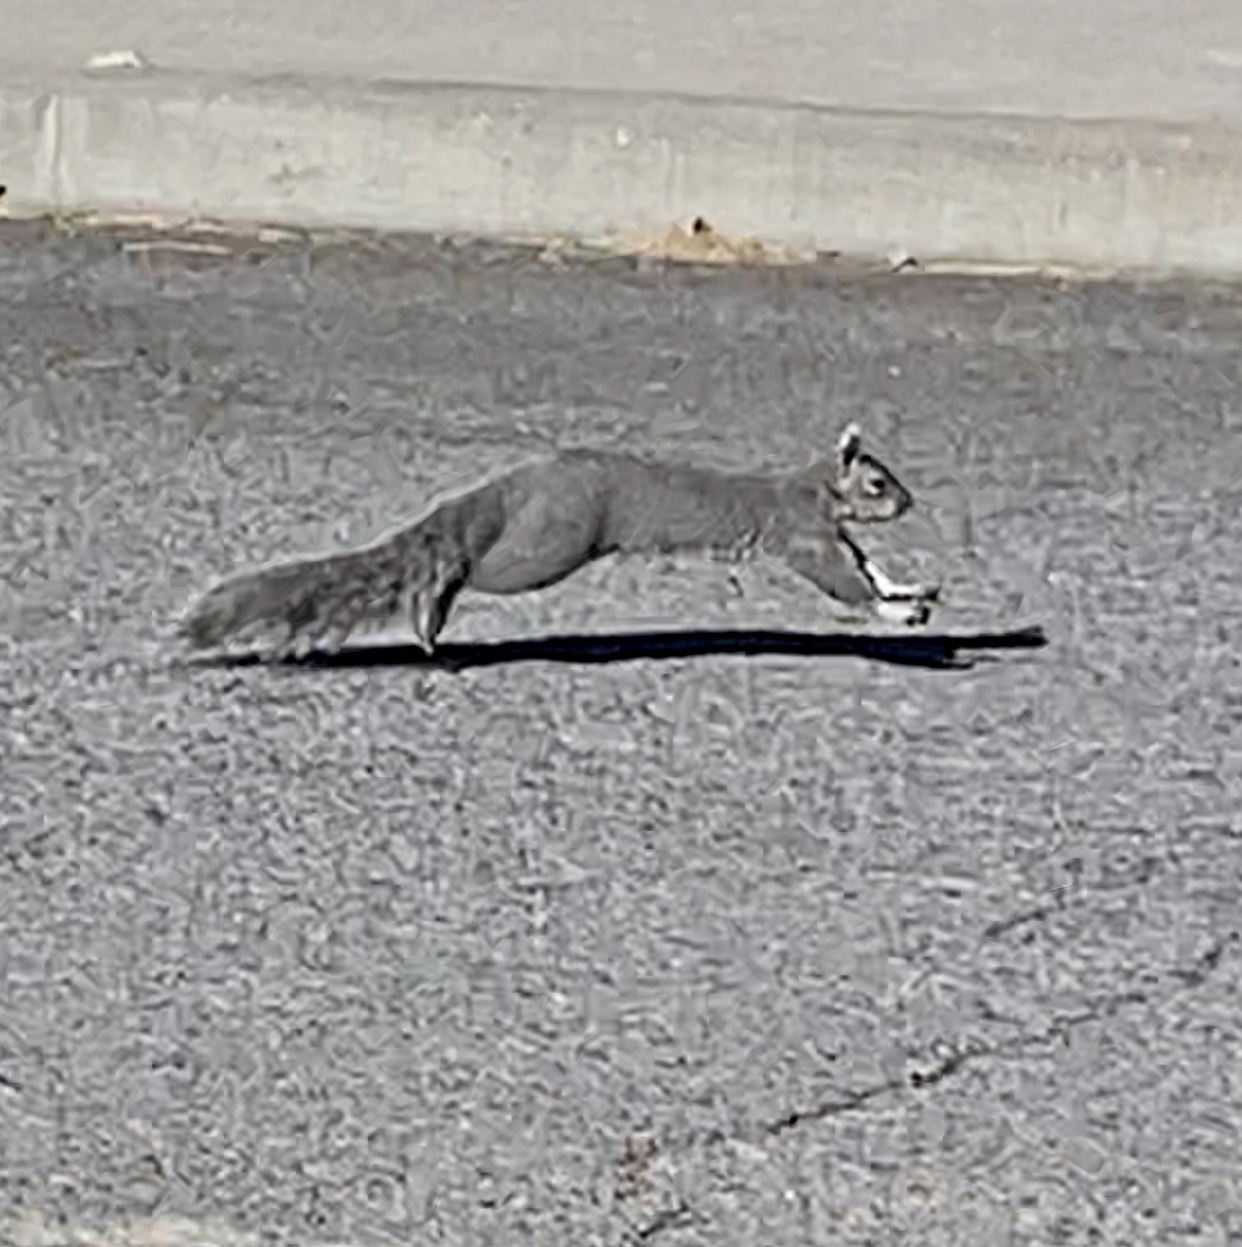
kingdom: Animalia
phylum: Chordata
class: Mammalia
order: Rodentia
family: Sciuridae
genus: Sciurus
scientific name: Sciurus griseus
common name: Western gray squirrel
